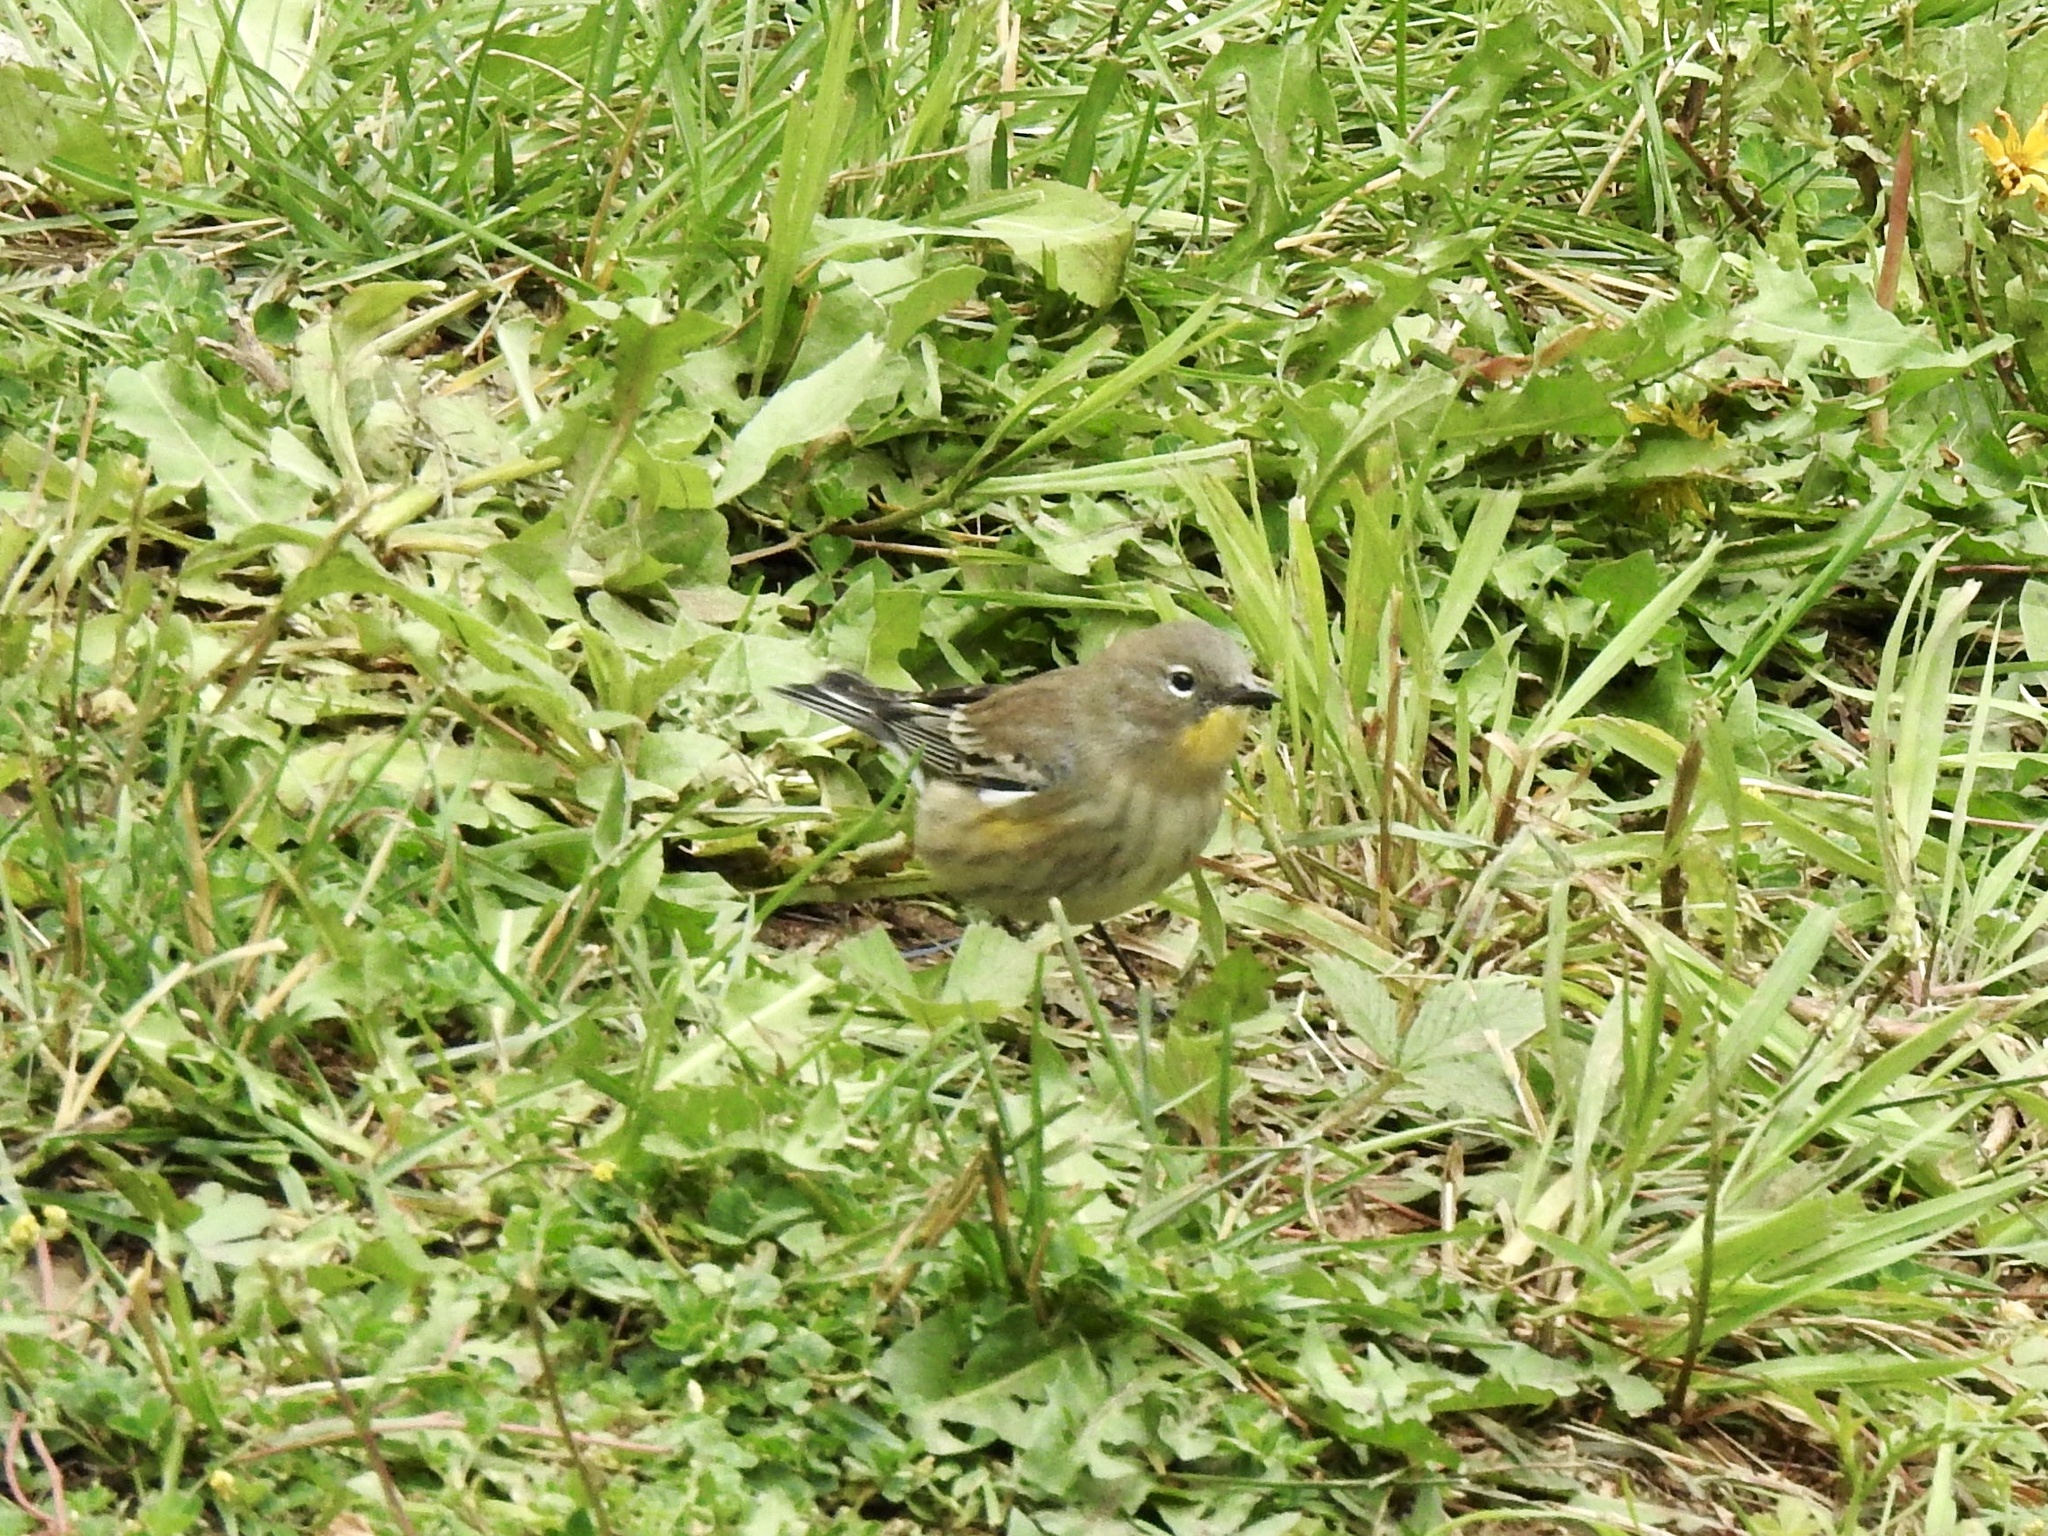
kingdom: Animalia
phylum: Chordata
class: Aves
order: Passeriformes
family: Parulidae
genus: Setophaga
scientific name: Setophaga coronata
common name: Myrtle warbler
